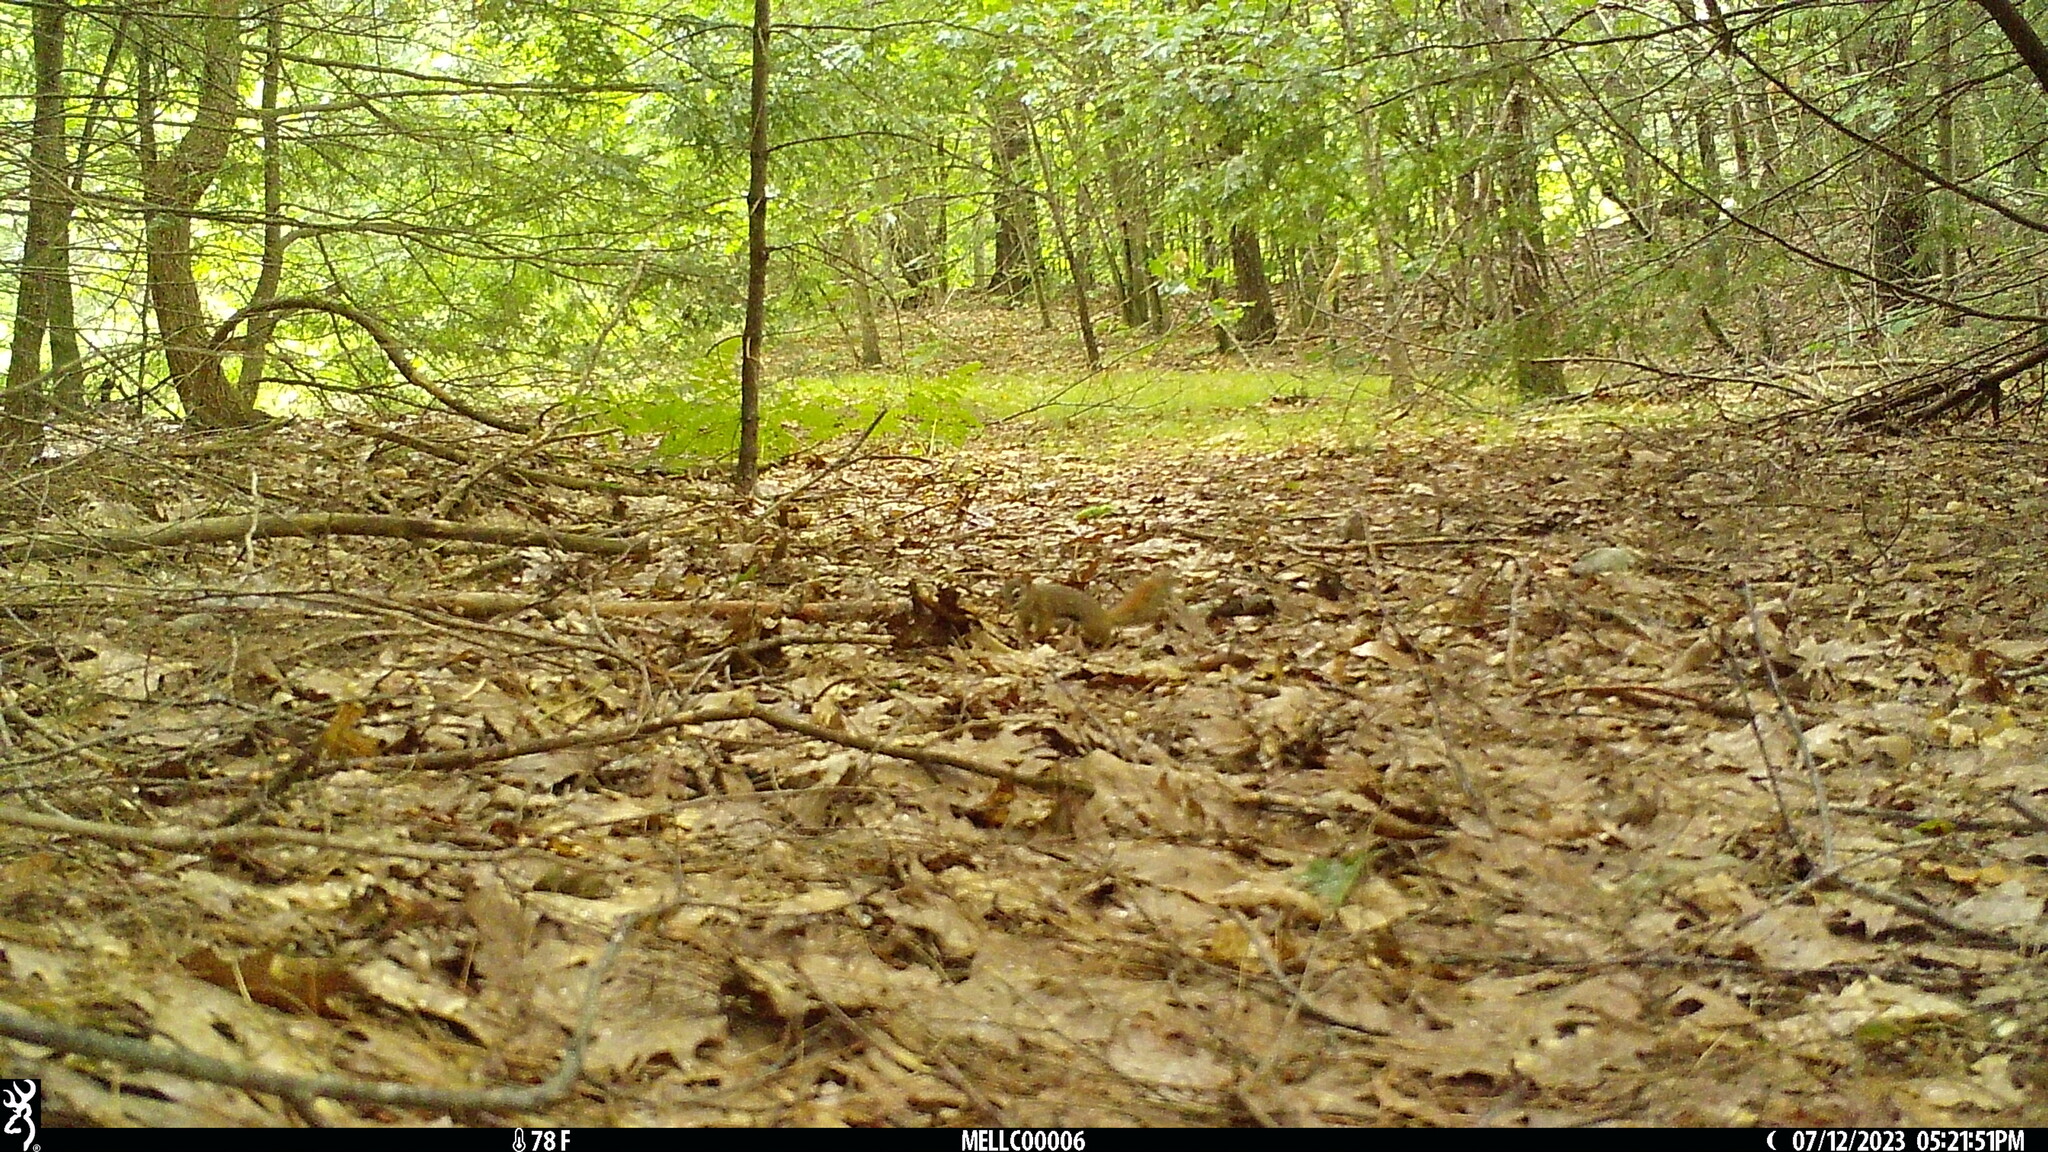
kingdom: Animalia
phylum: Chordata
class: Mammalia
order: Rodentia
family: Sciuridae
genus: Tamiasciurus
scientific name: Tamiasciurus hudsonicus
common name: Red squirrel
